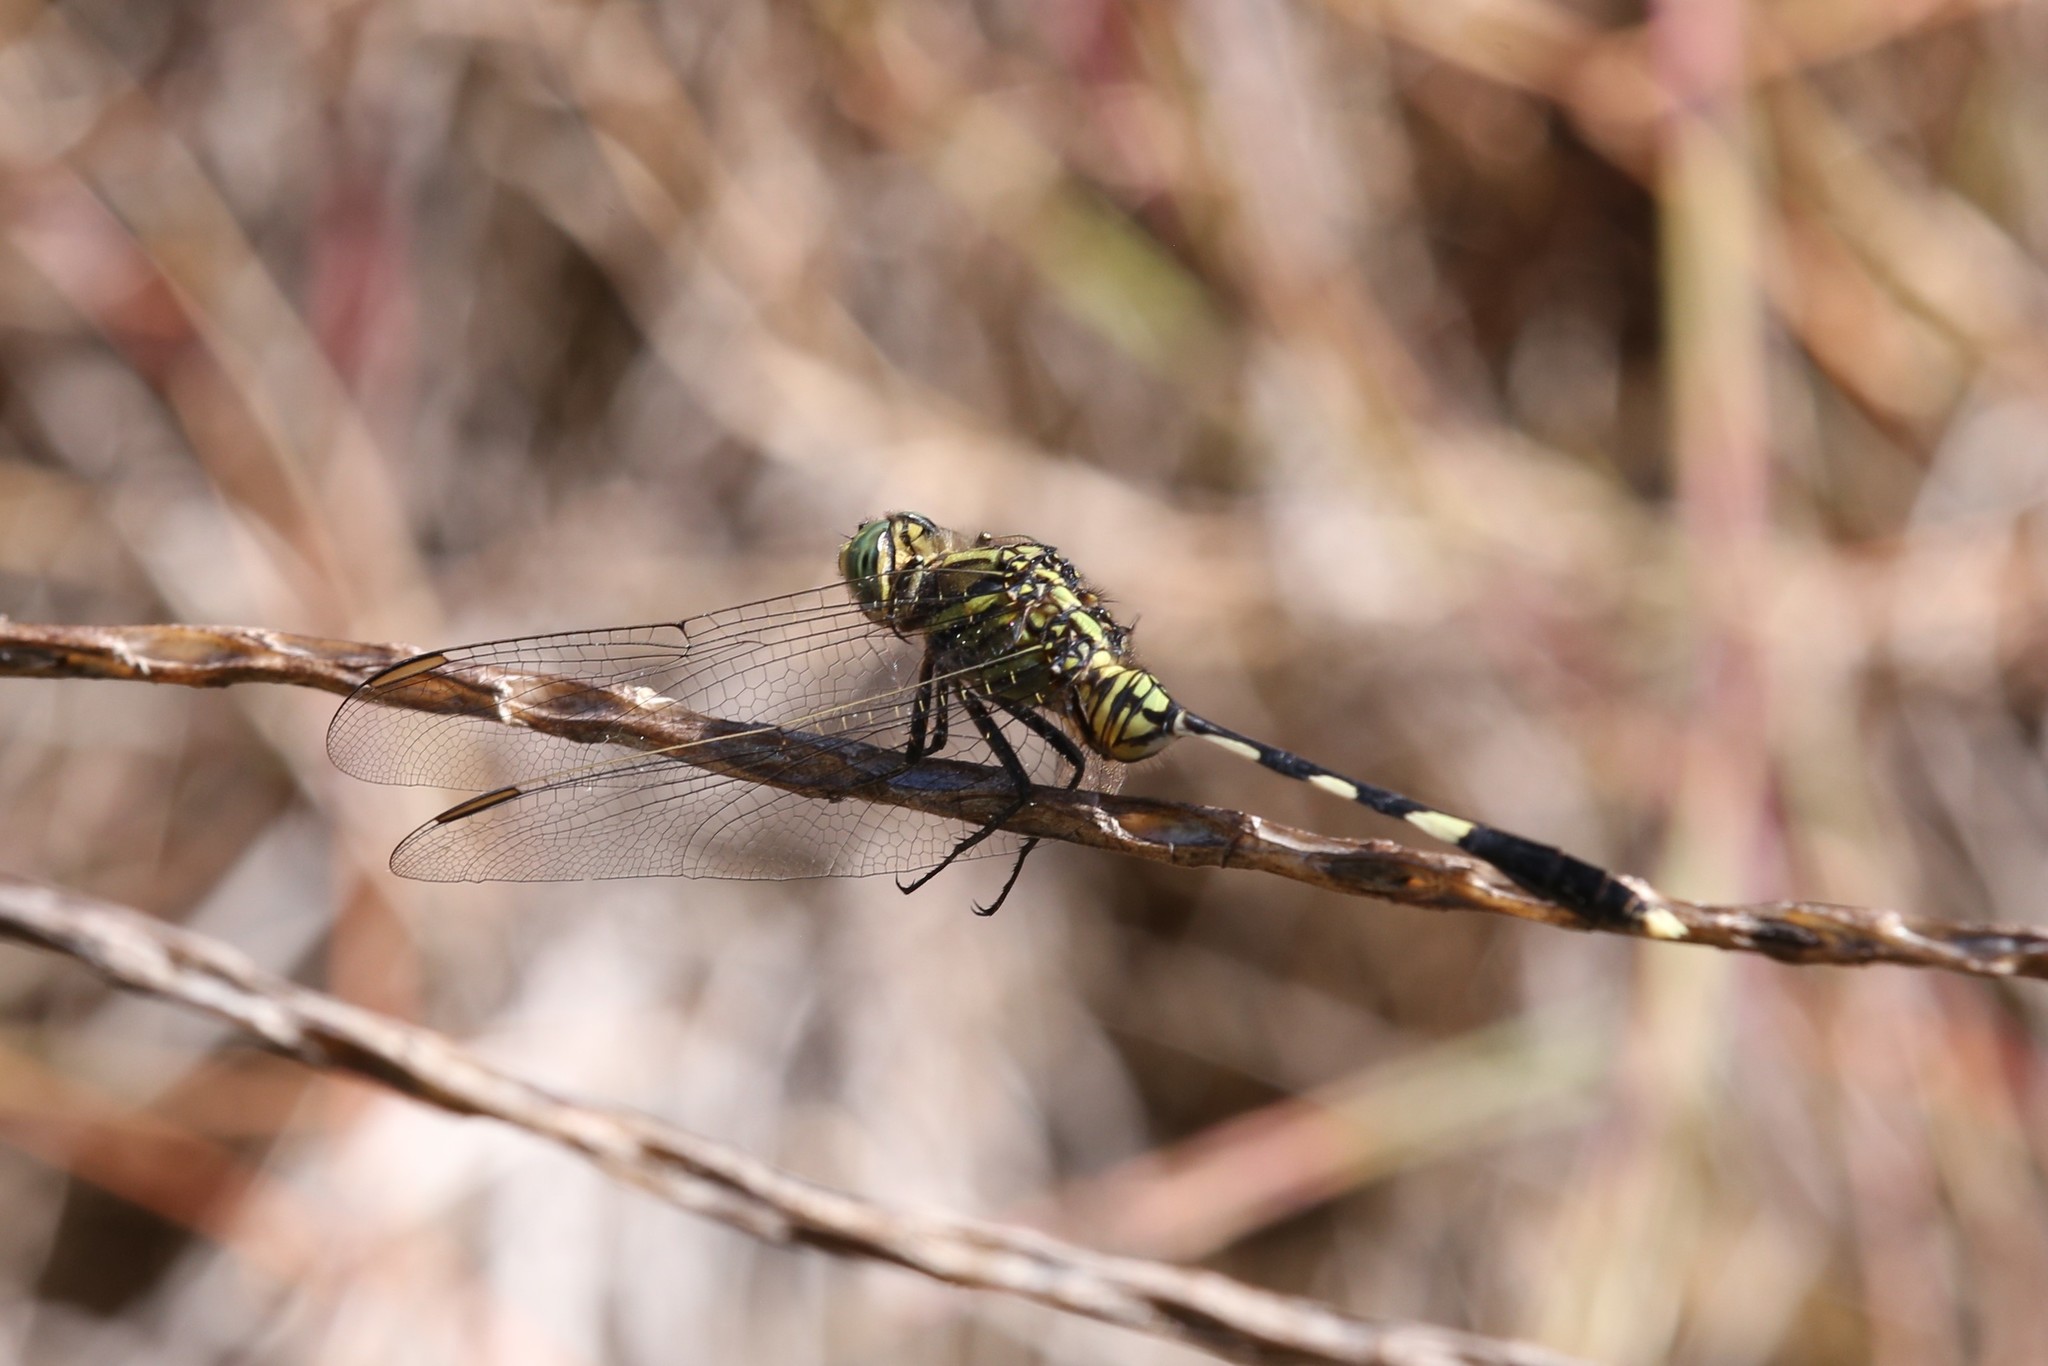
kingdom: Animalia
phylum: Arthropoda
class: Insecta
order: Odonata
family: Libellulidae
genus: Orthetrum
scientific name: Orthetrum sabina
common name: Slender skimmer
